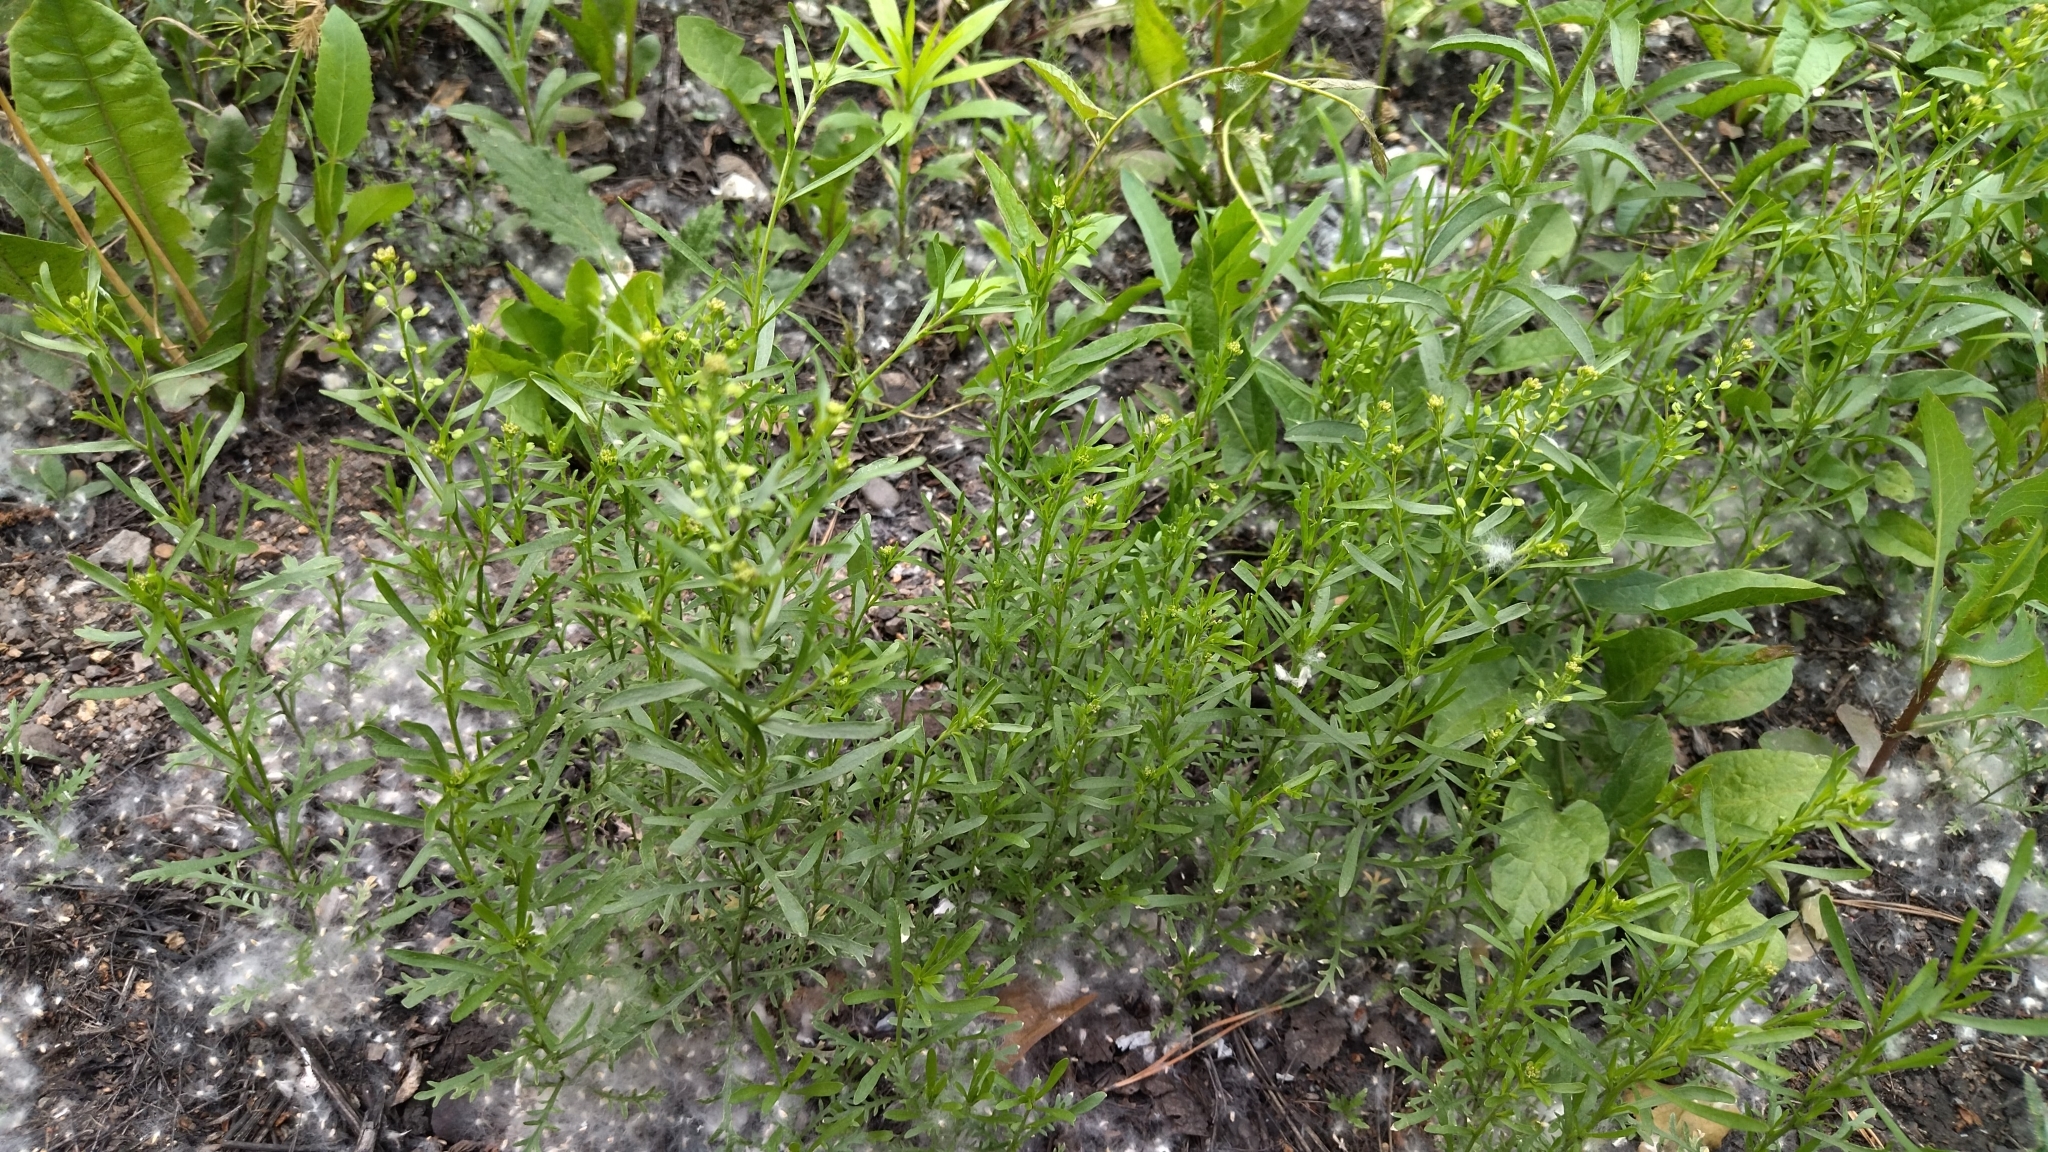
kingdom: Plantae
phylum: Tracheophyta
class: Magnoliopsida
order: Brassicales
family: Brassicaceae
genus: Lepidium
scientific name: Lepidium ruderale
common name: Narrow-leaved pepperwort
